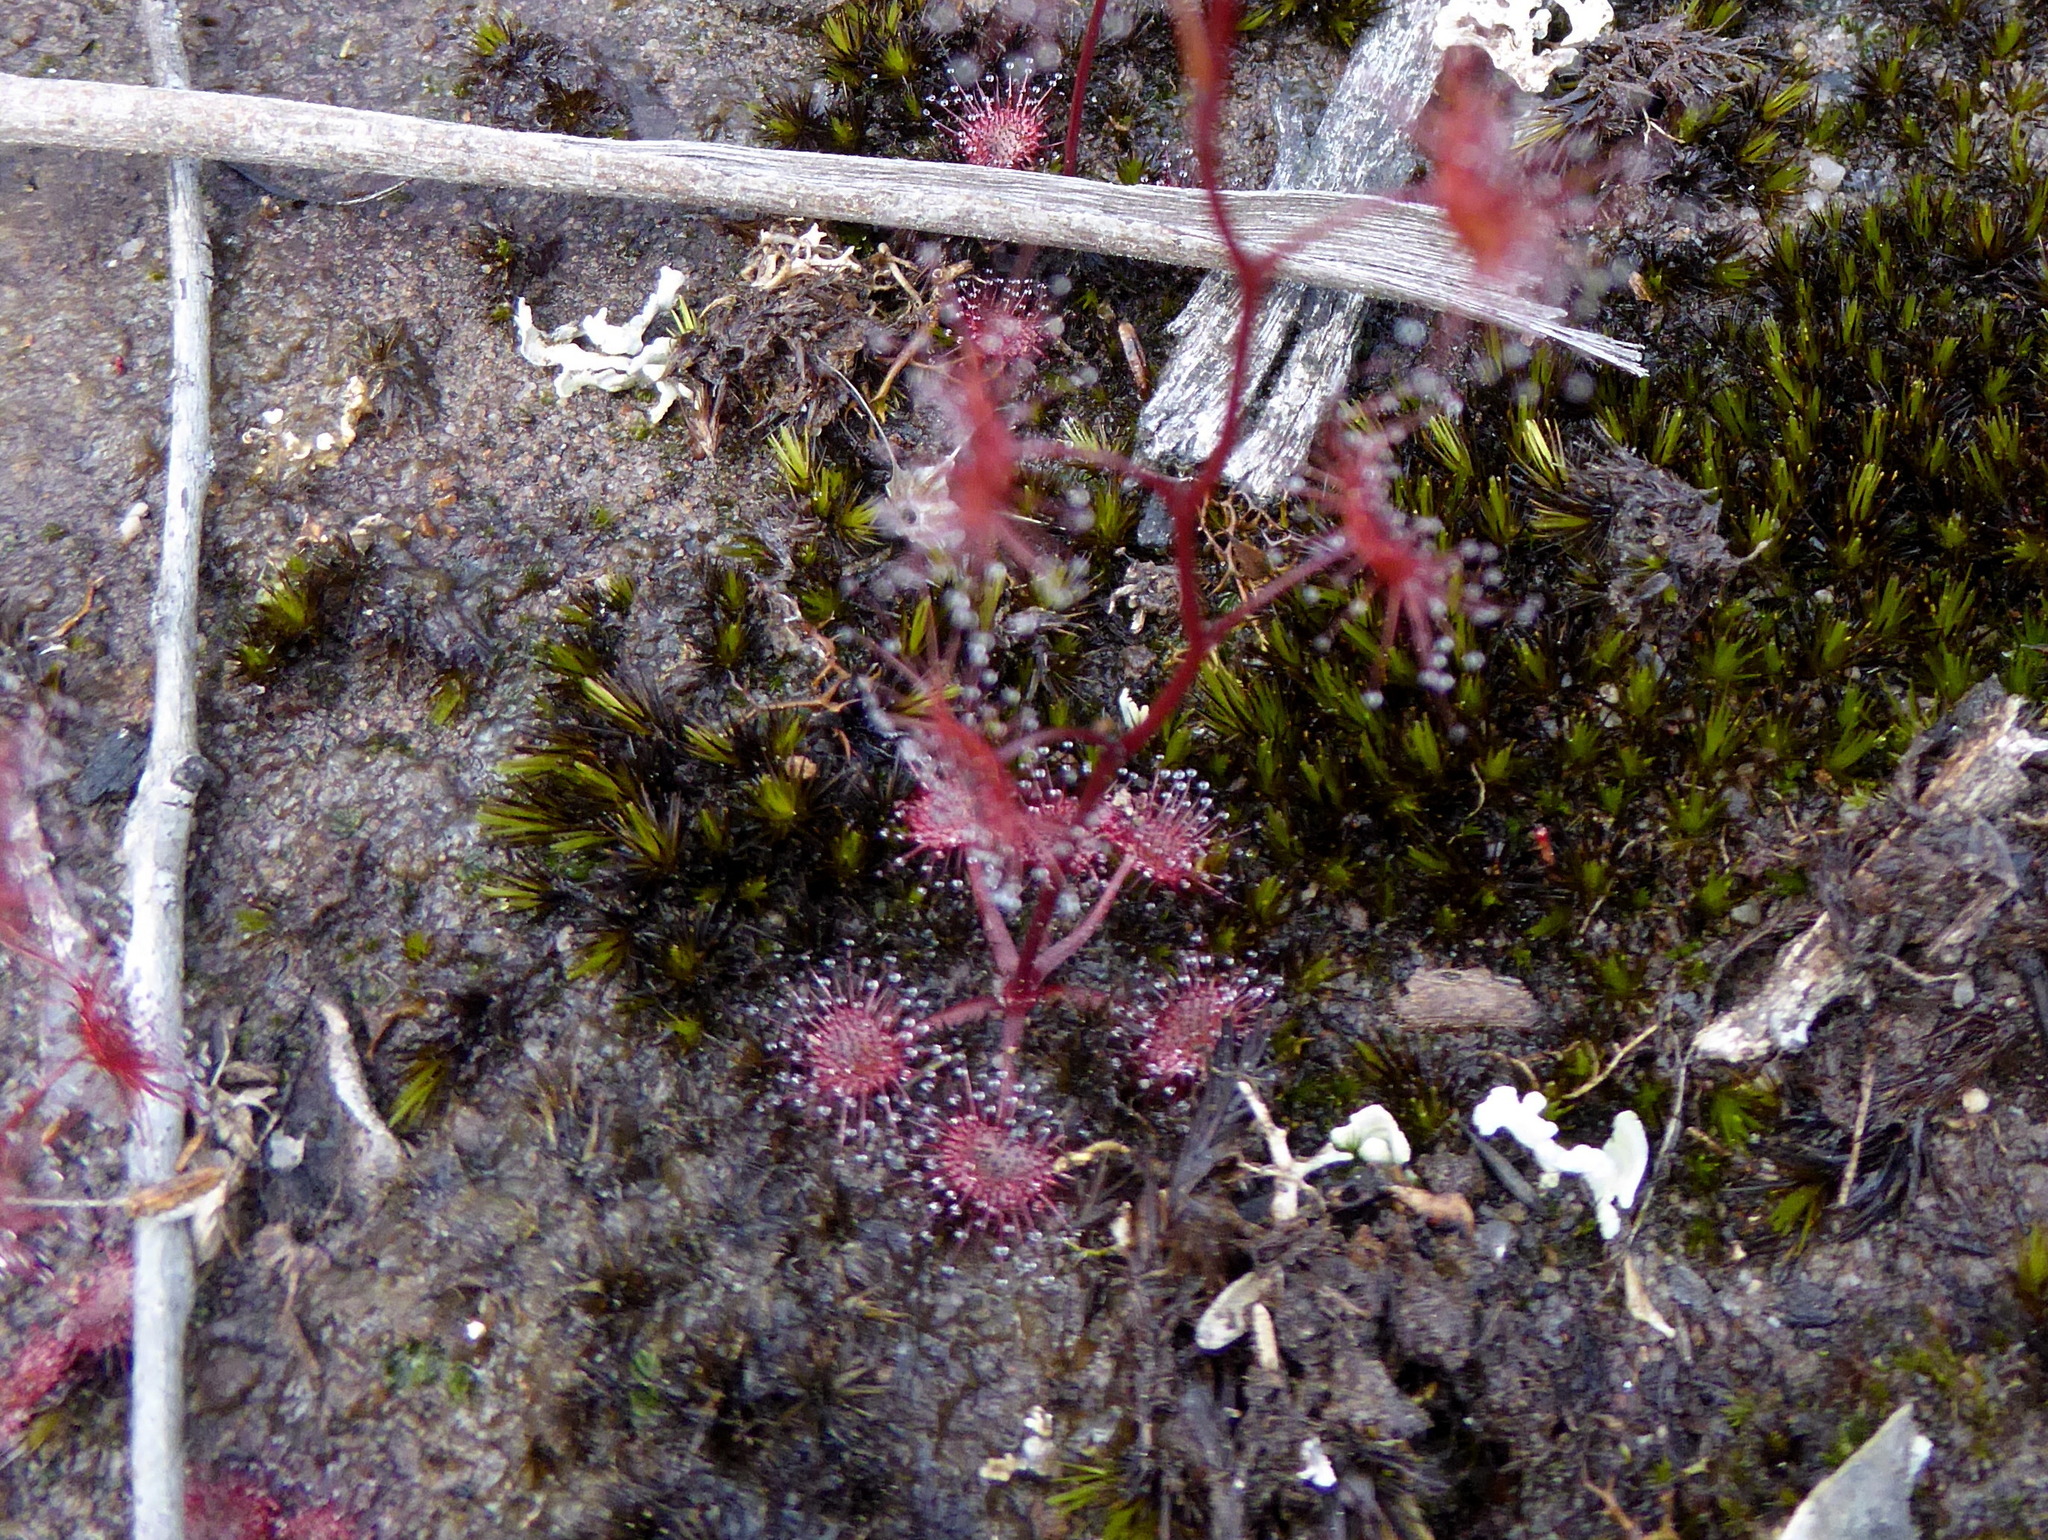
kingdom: Plantae
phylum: Tracheophyta
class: Magnoliopsida
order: Caryophyllales
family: Droseraceae
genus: Drosera
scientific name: Drosera peltata
